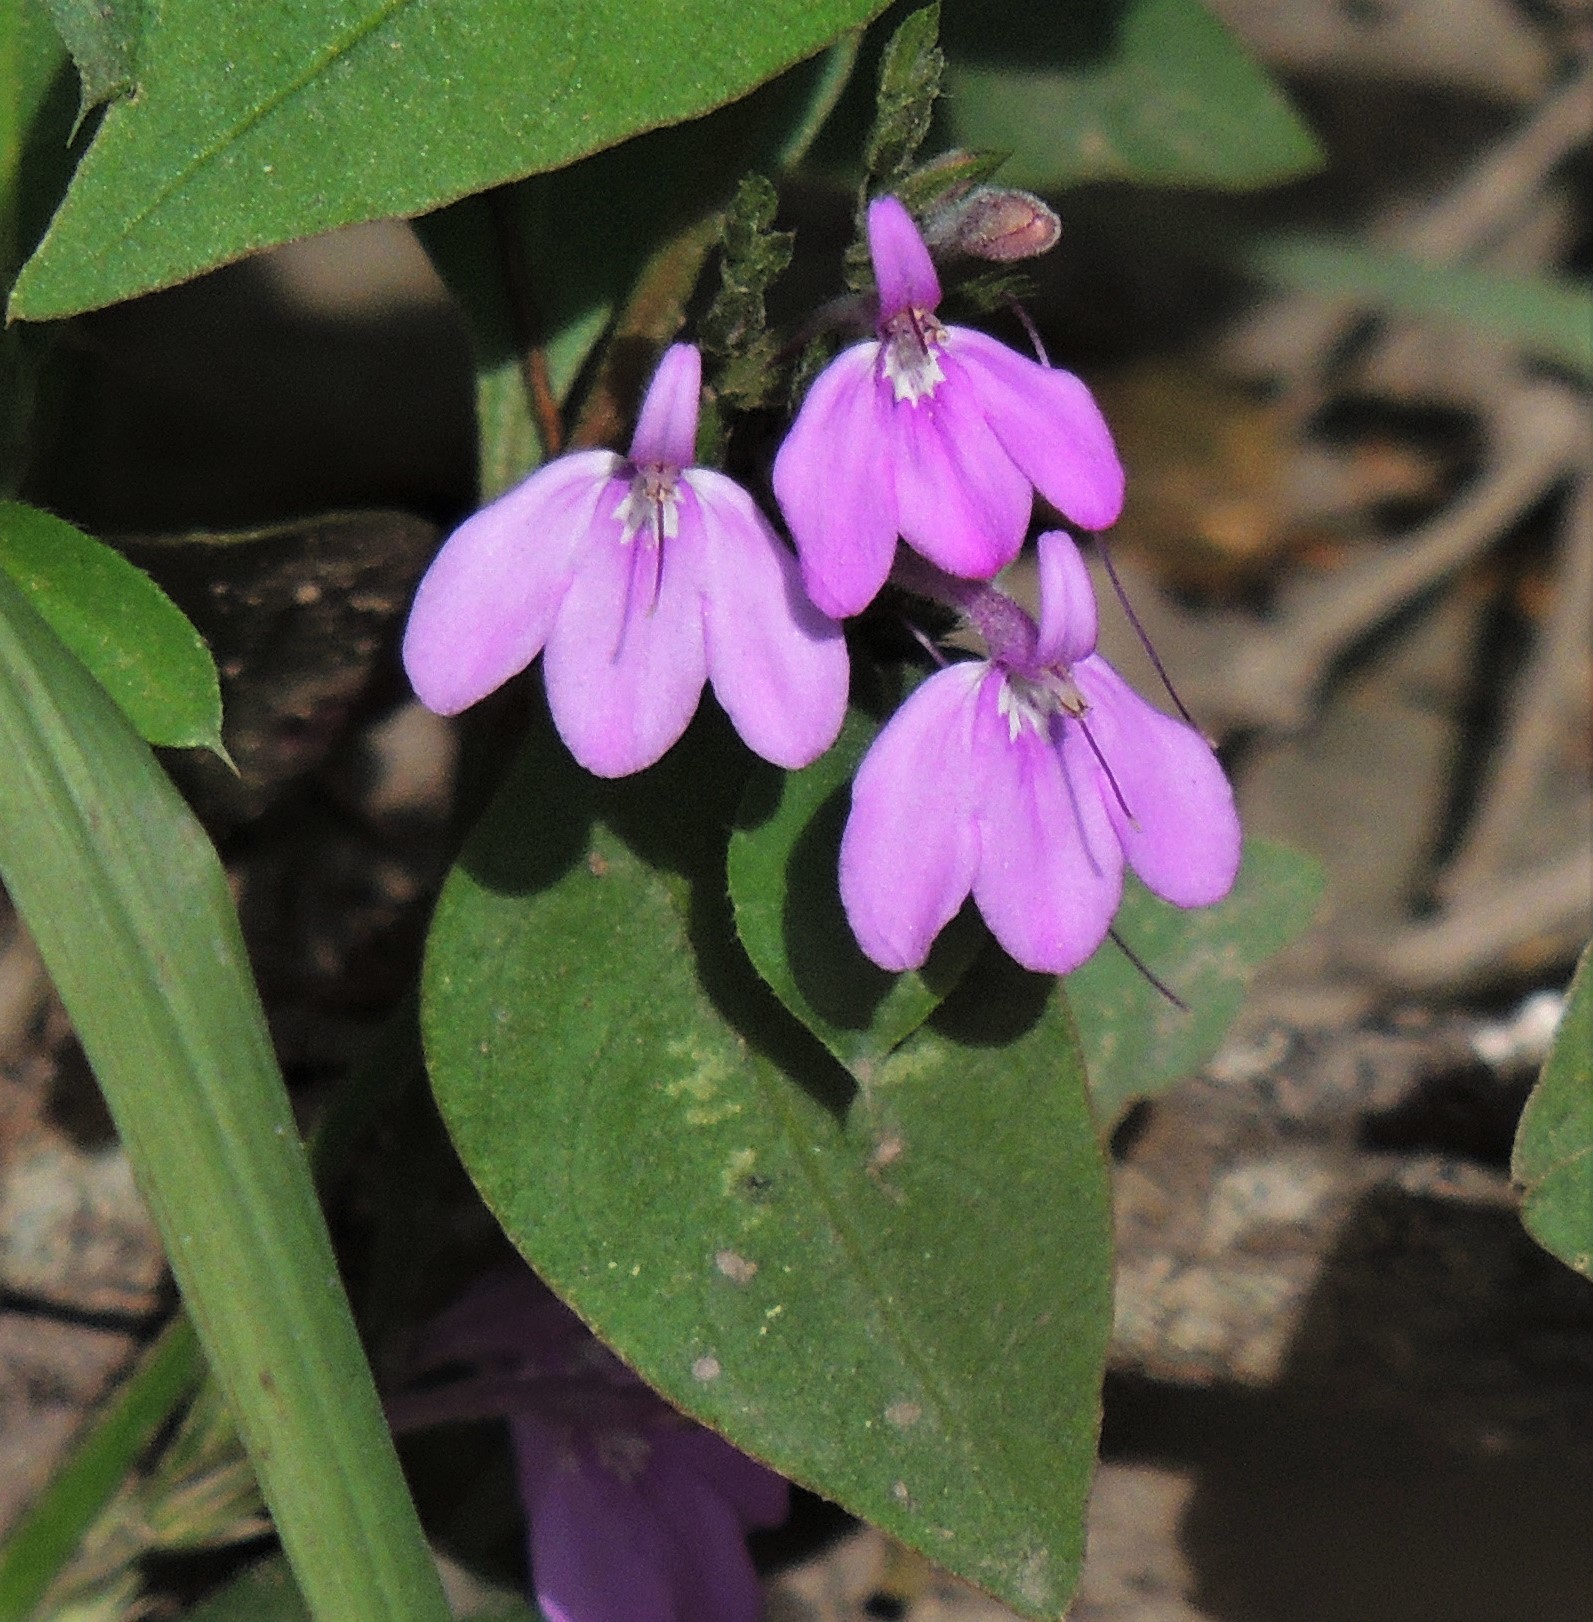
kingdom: Plantae
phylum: Tracheophyta
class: Magnoliopsida
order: Lamiales
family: Acanthaceae
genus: Justicia
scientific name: Justicia goudotii
